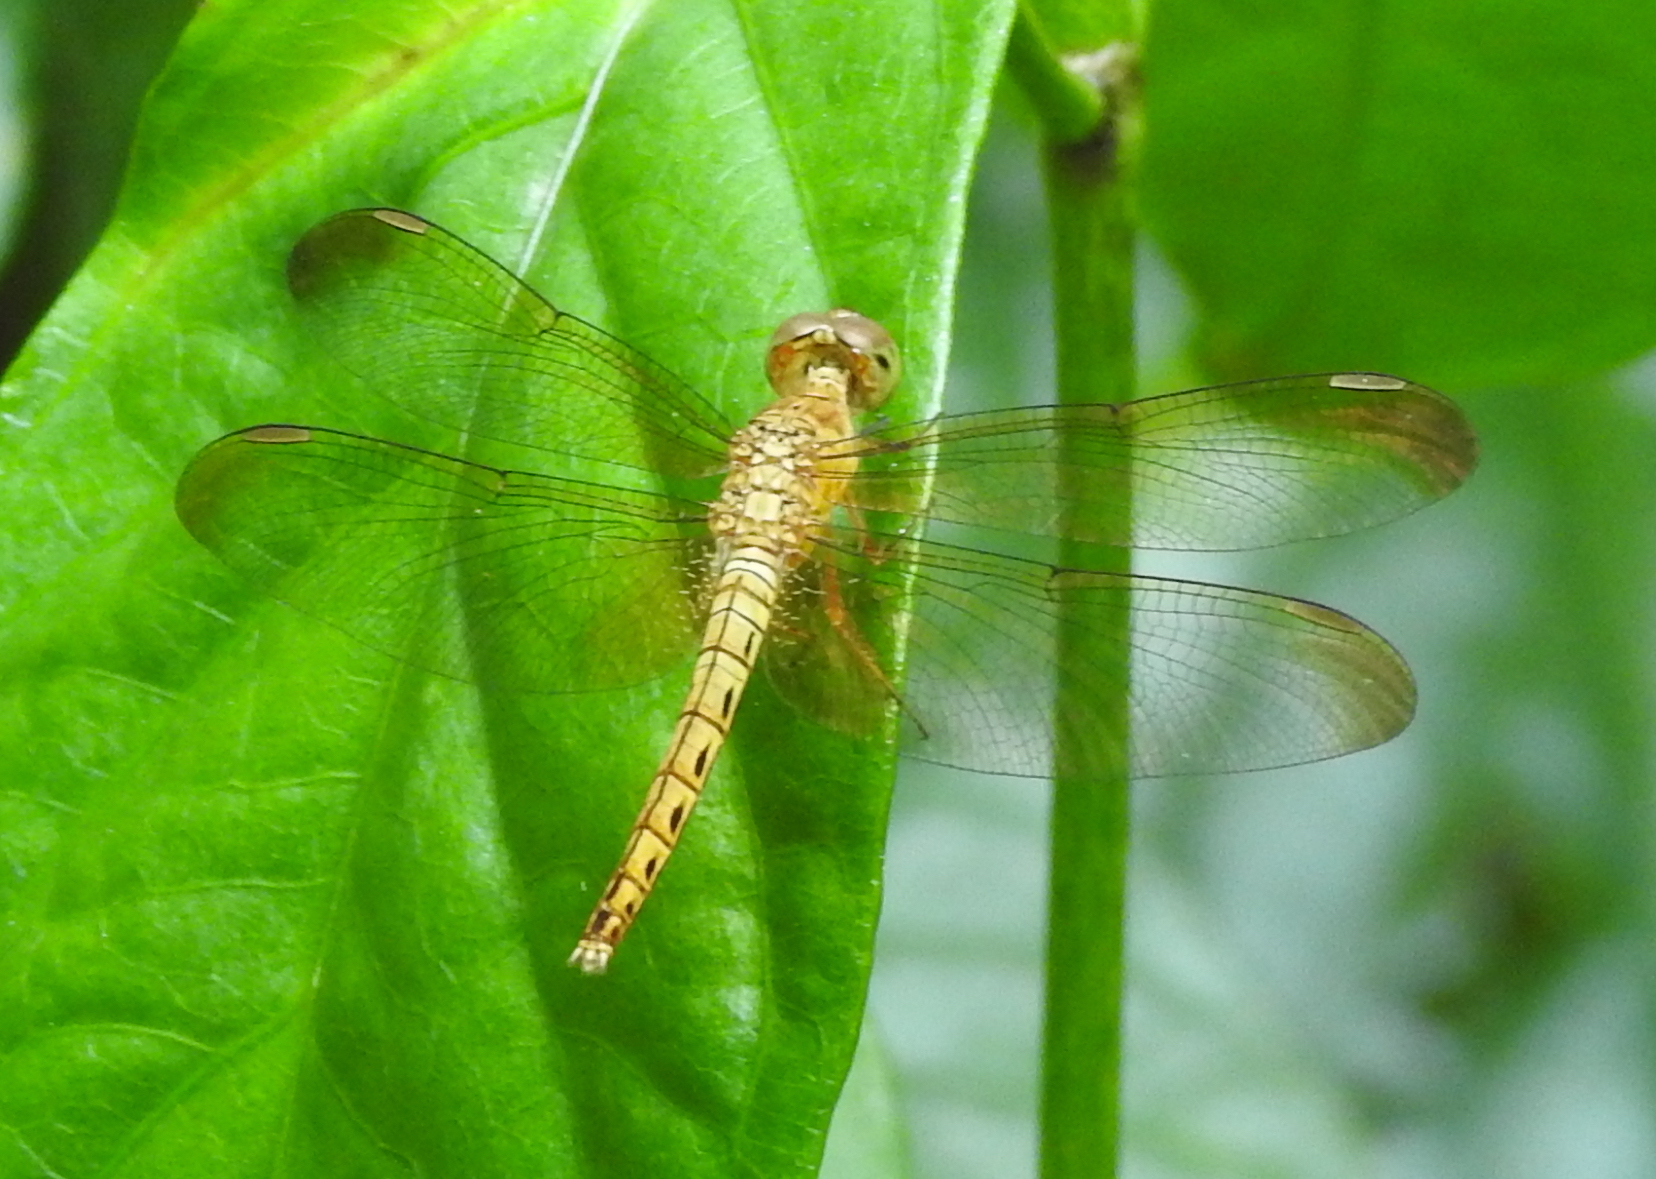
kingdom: Animalia
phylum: Arthropoda
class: Insecta
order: Odonata
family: Libellulidae
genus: Neurothemis
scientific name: Neurothemis fluctuans
